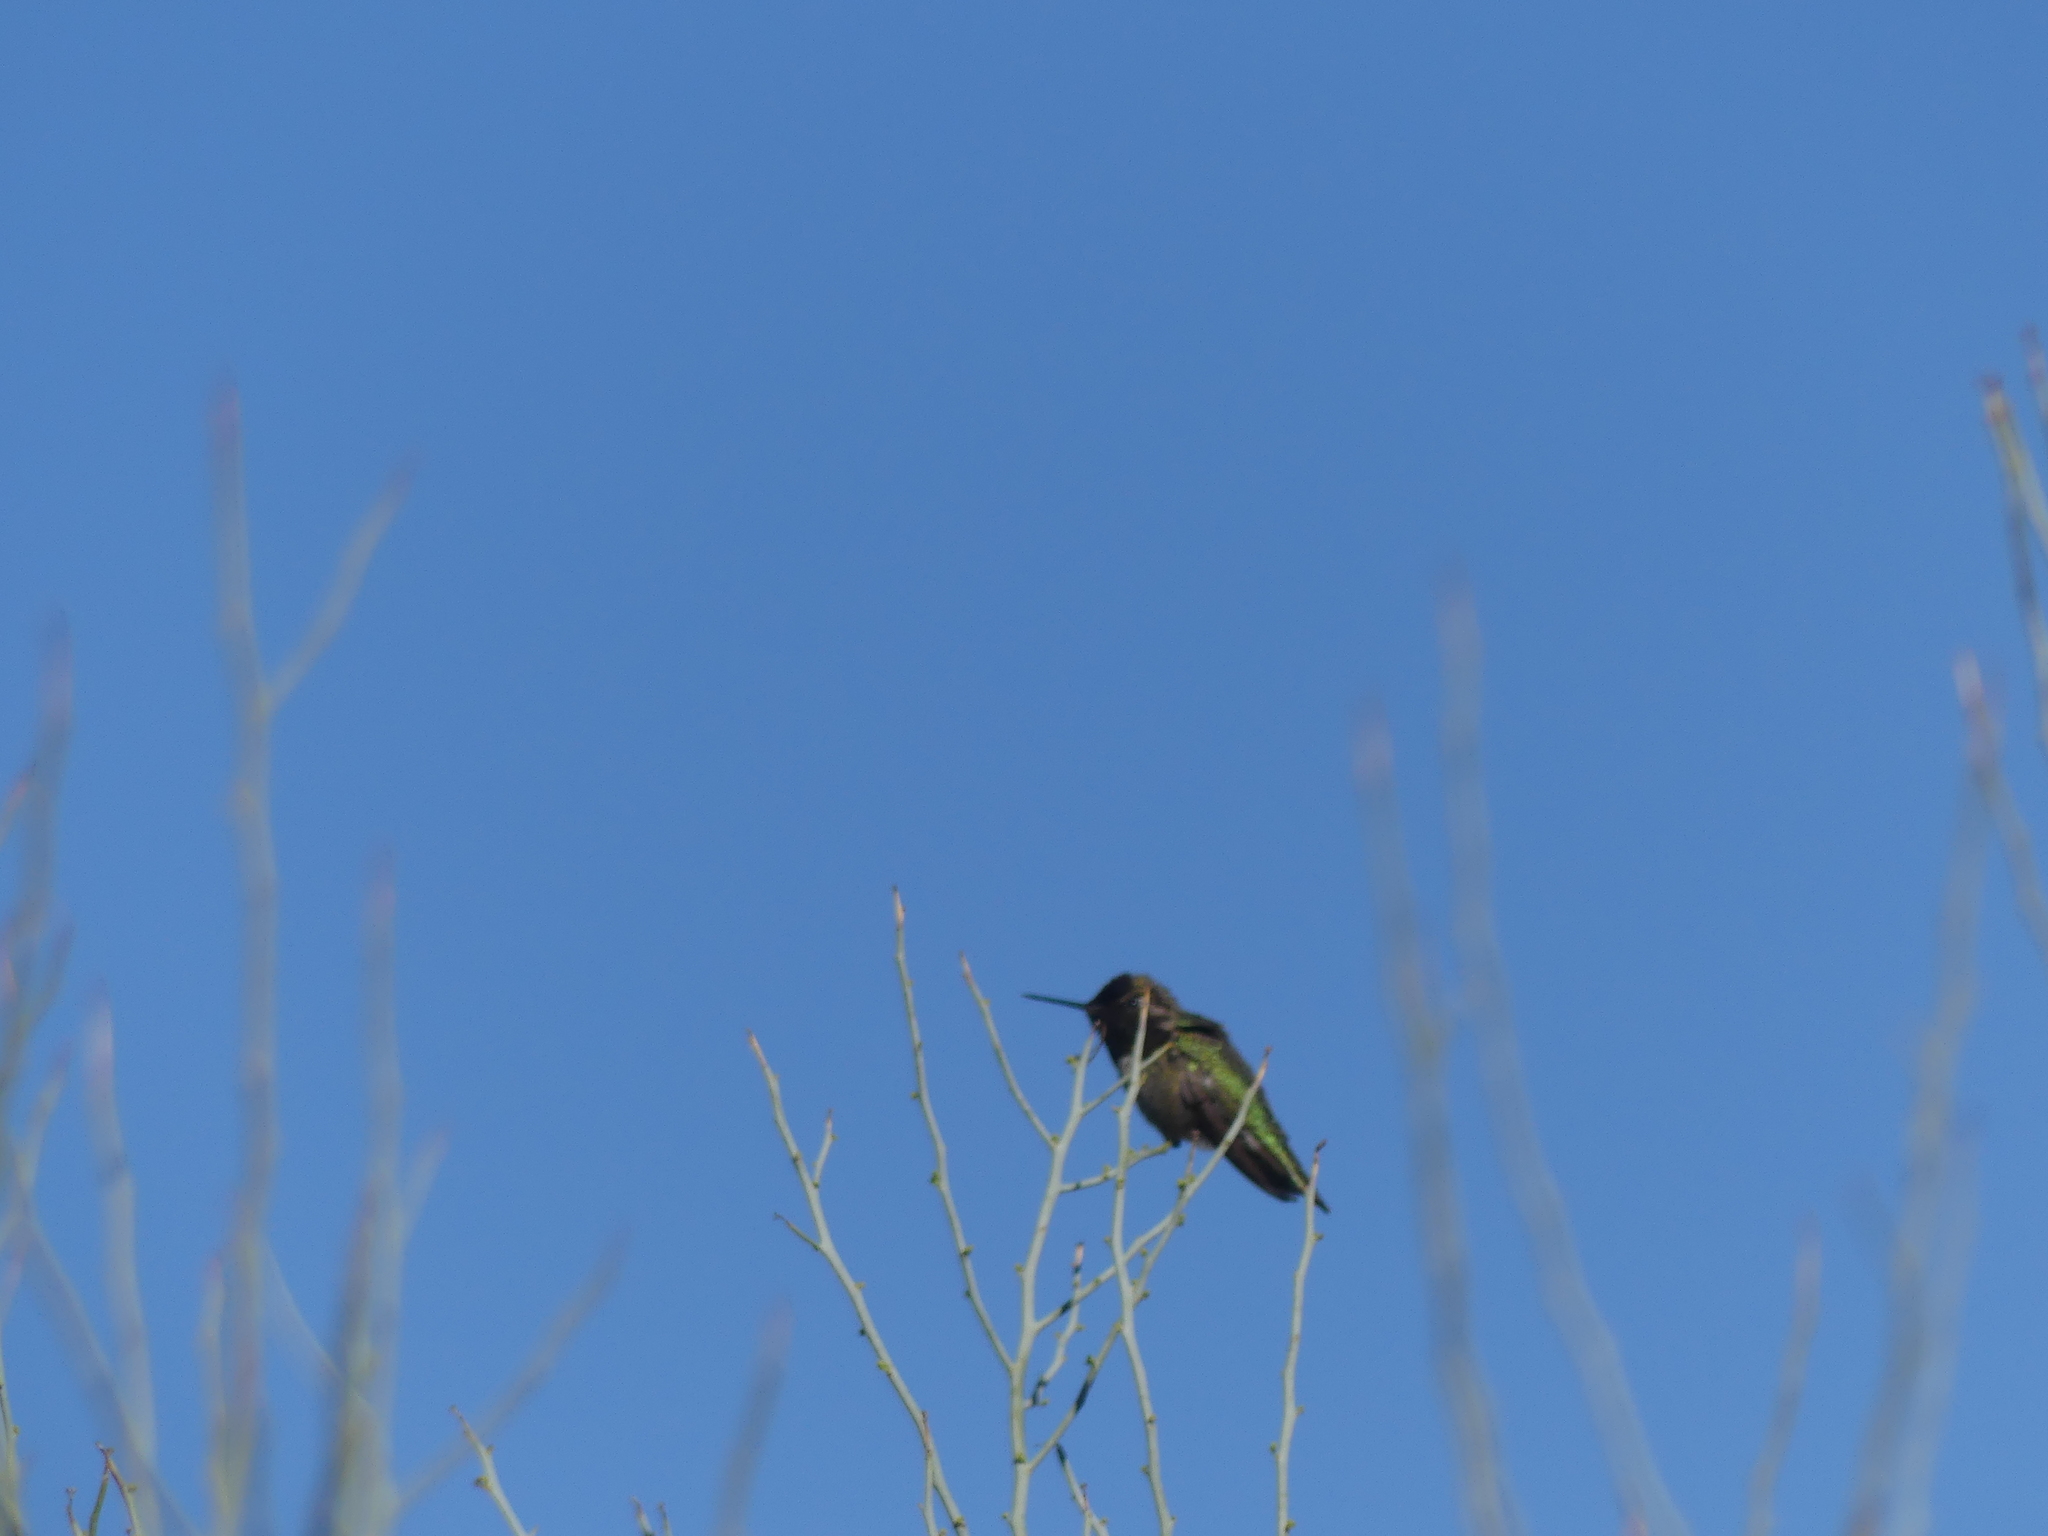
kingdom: Animalia
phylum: Chordata
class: Aves
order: Apodiformes
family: Trochilidae
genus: Calypte
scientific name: Calypte anna
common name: Anna's hummingbird
